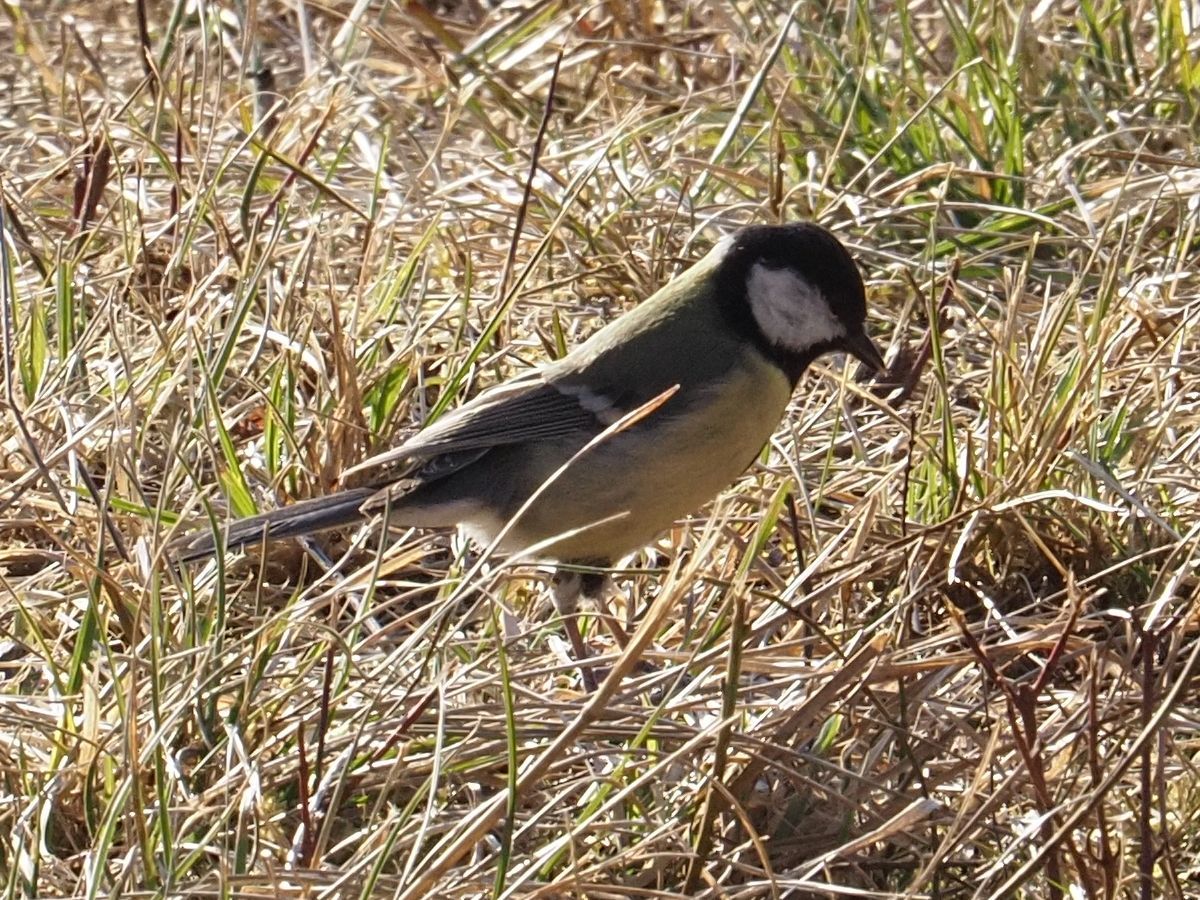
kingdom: Animalia
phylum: Chordata
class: Aves
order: Passeriformes
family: Paridae
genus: Parus
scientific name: Parus major
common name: Great tit
